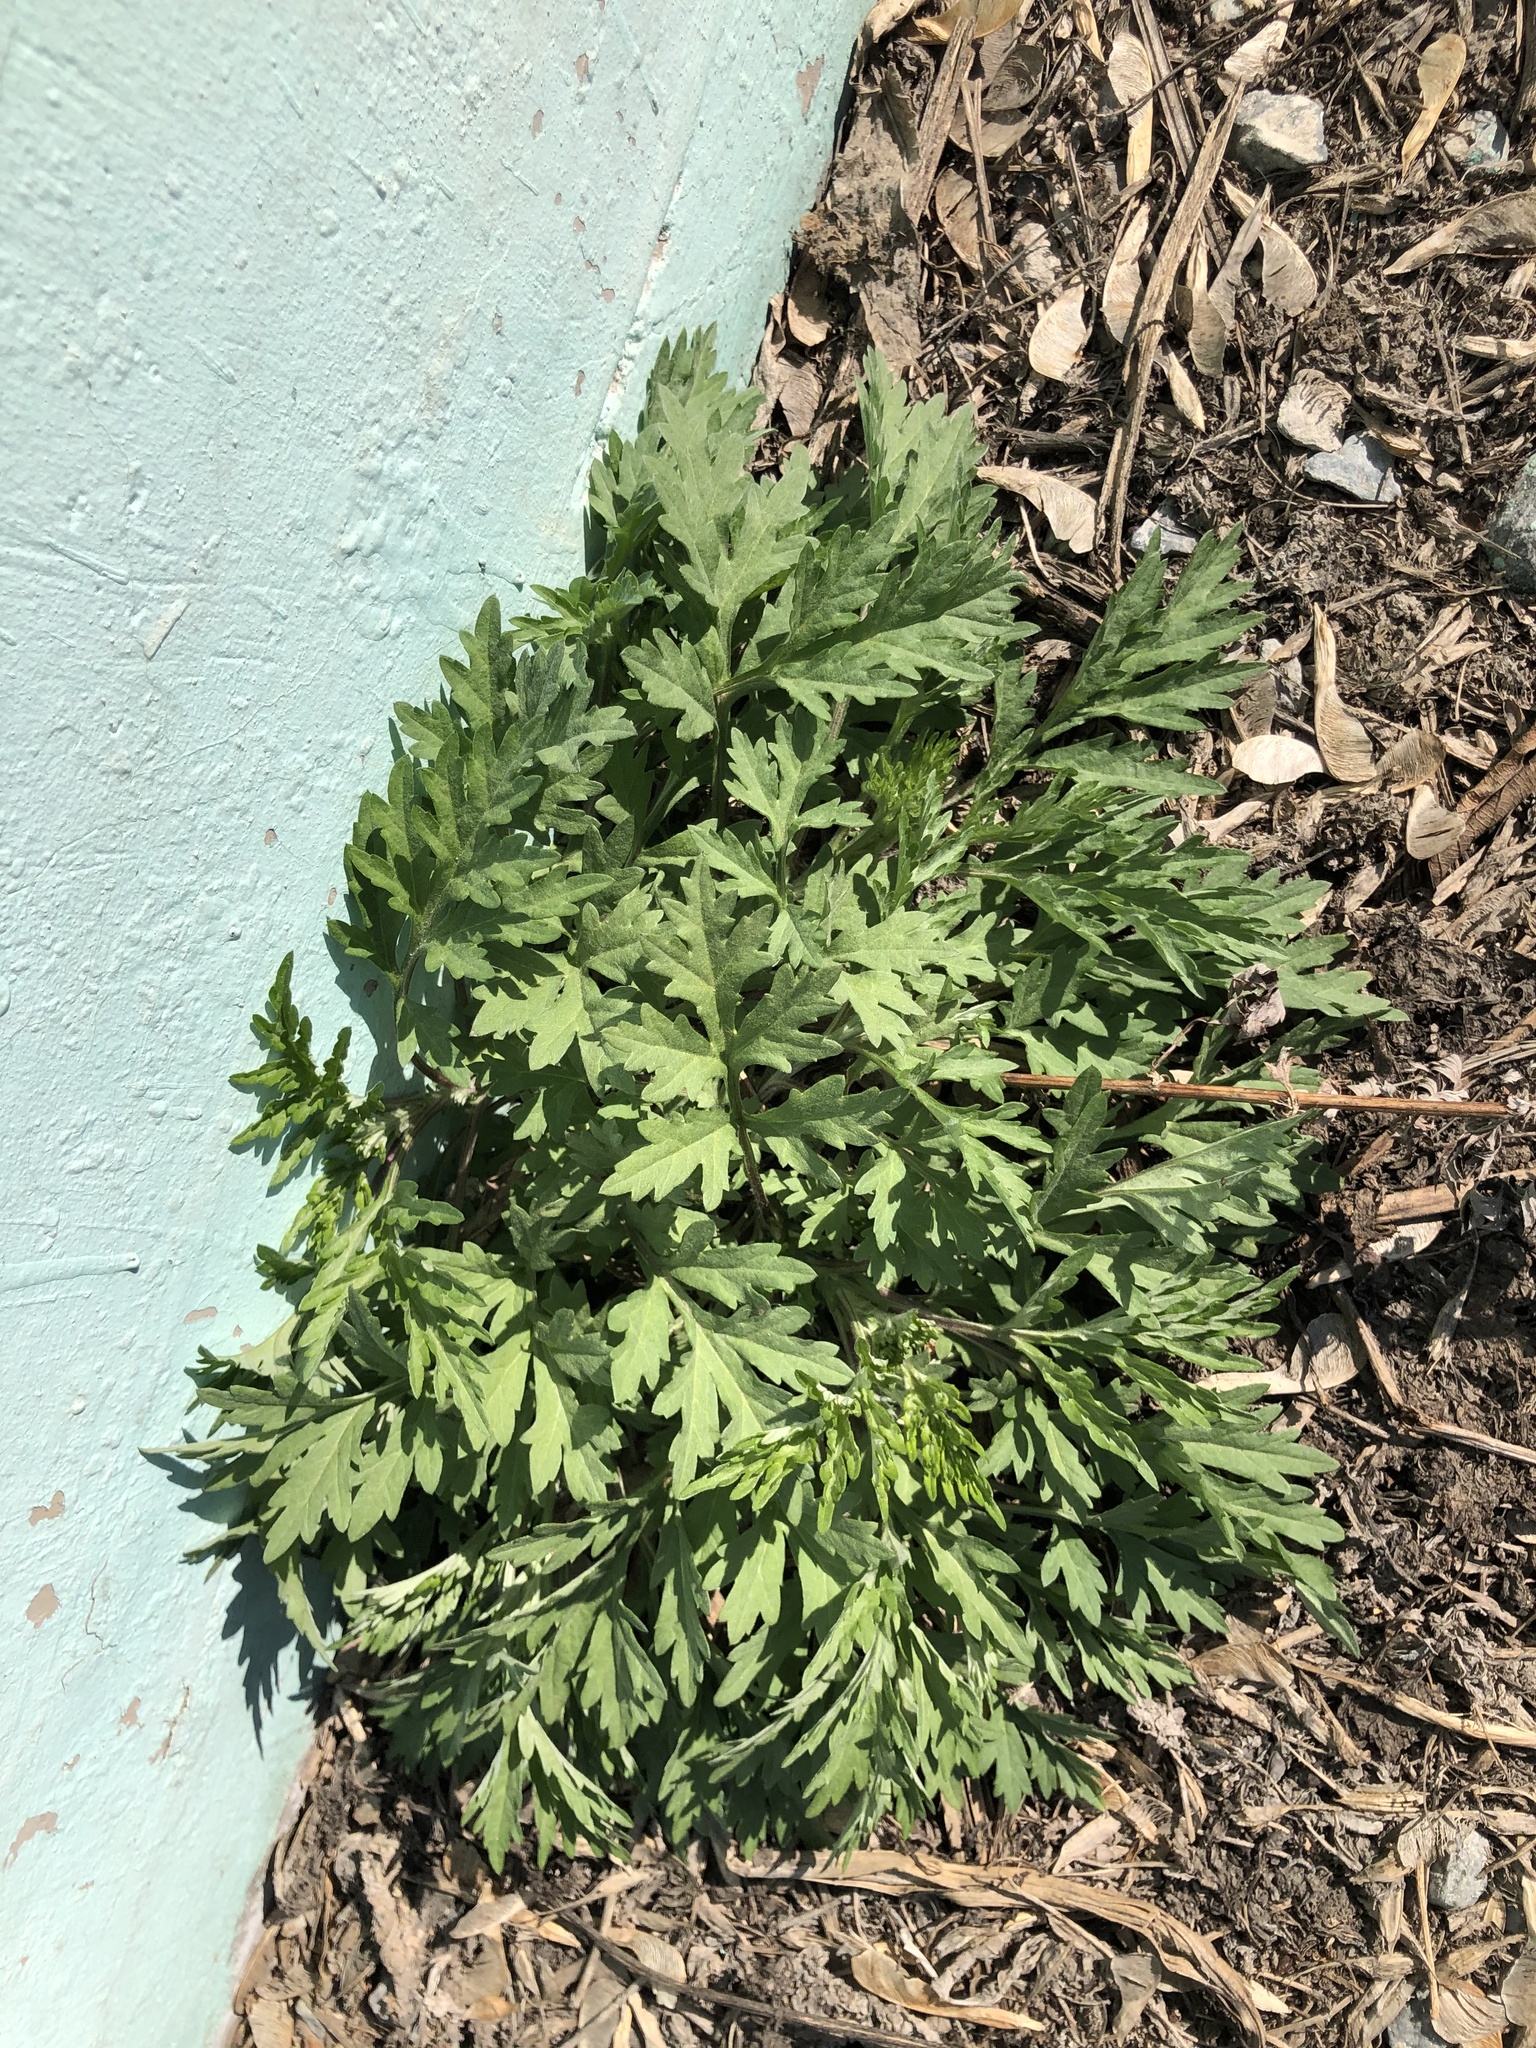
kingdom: Plantae
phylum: Tracheophyta
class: Magnoliopsida
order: Asterales
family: Asteraceae
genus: Artemisia
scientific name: Artemisia vulgaris
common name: Mugwort
